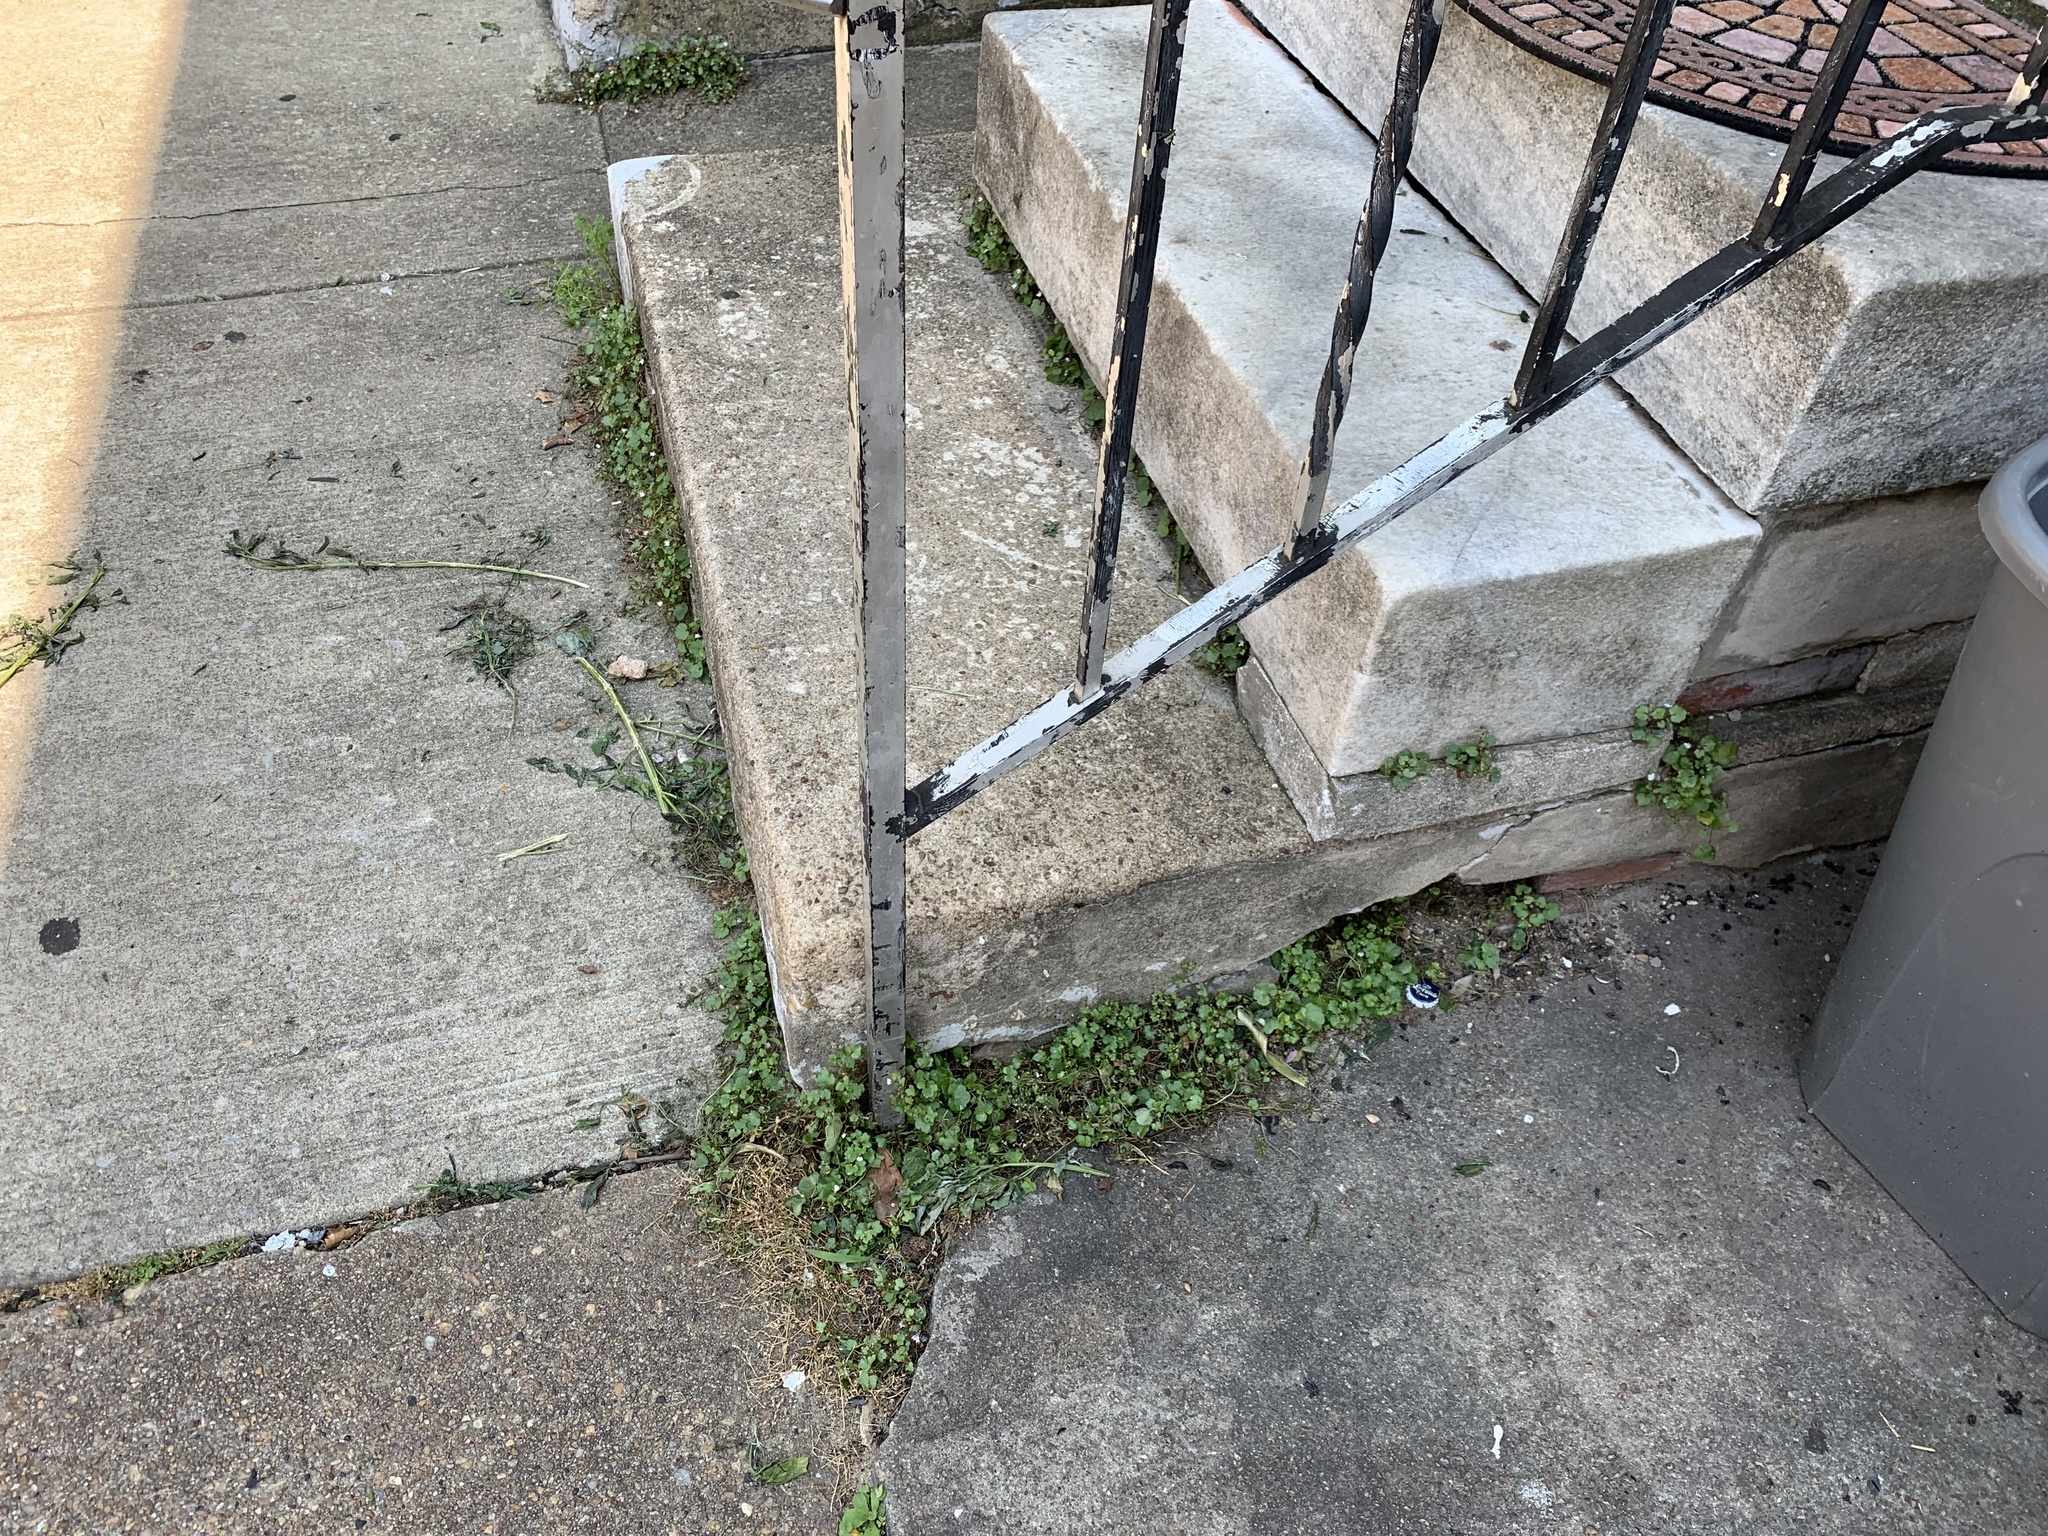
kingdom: Plantae
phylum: Tracheophyta
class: Magnoliopsida
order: Lamiales
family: Plantaginaceae
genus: Cymbalaria
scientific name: Cymbalaria muralis
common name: Ivy-leaved toadflax
